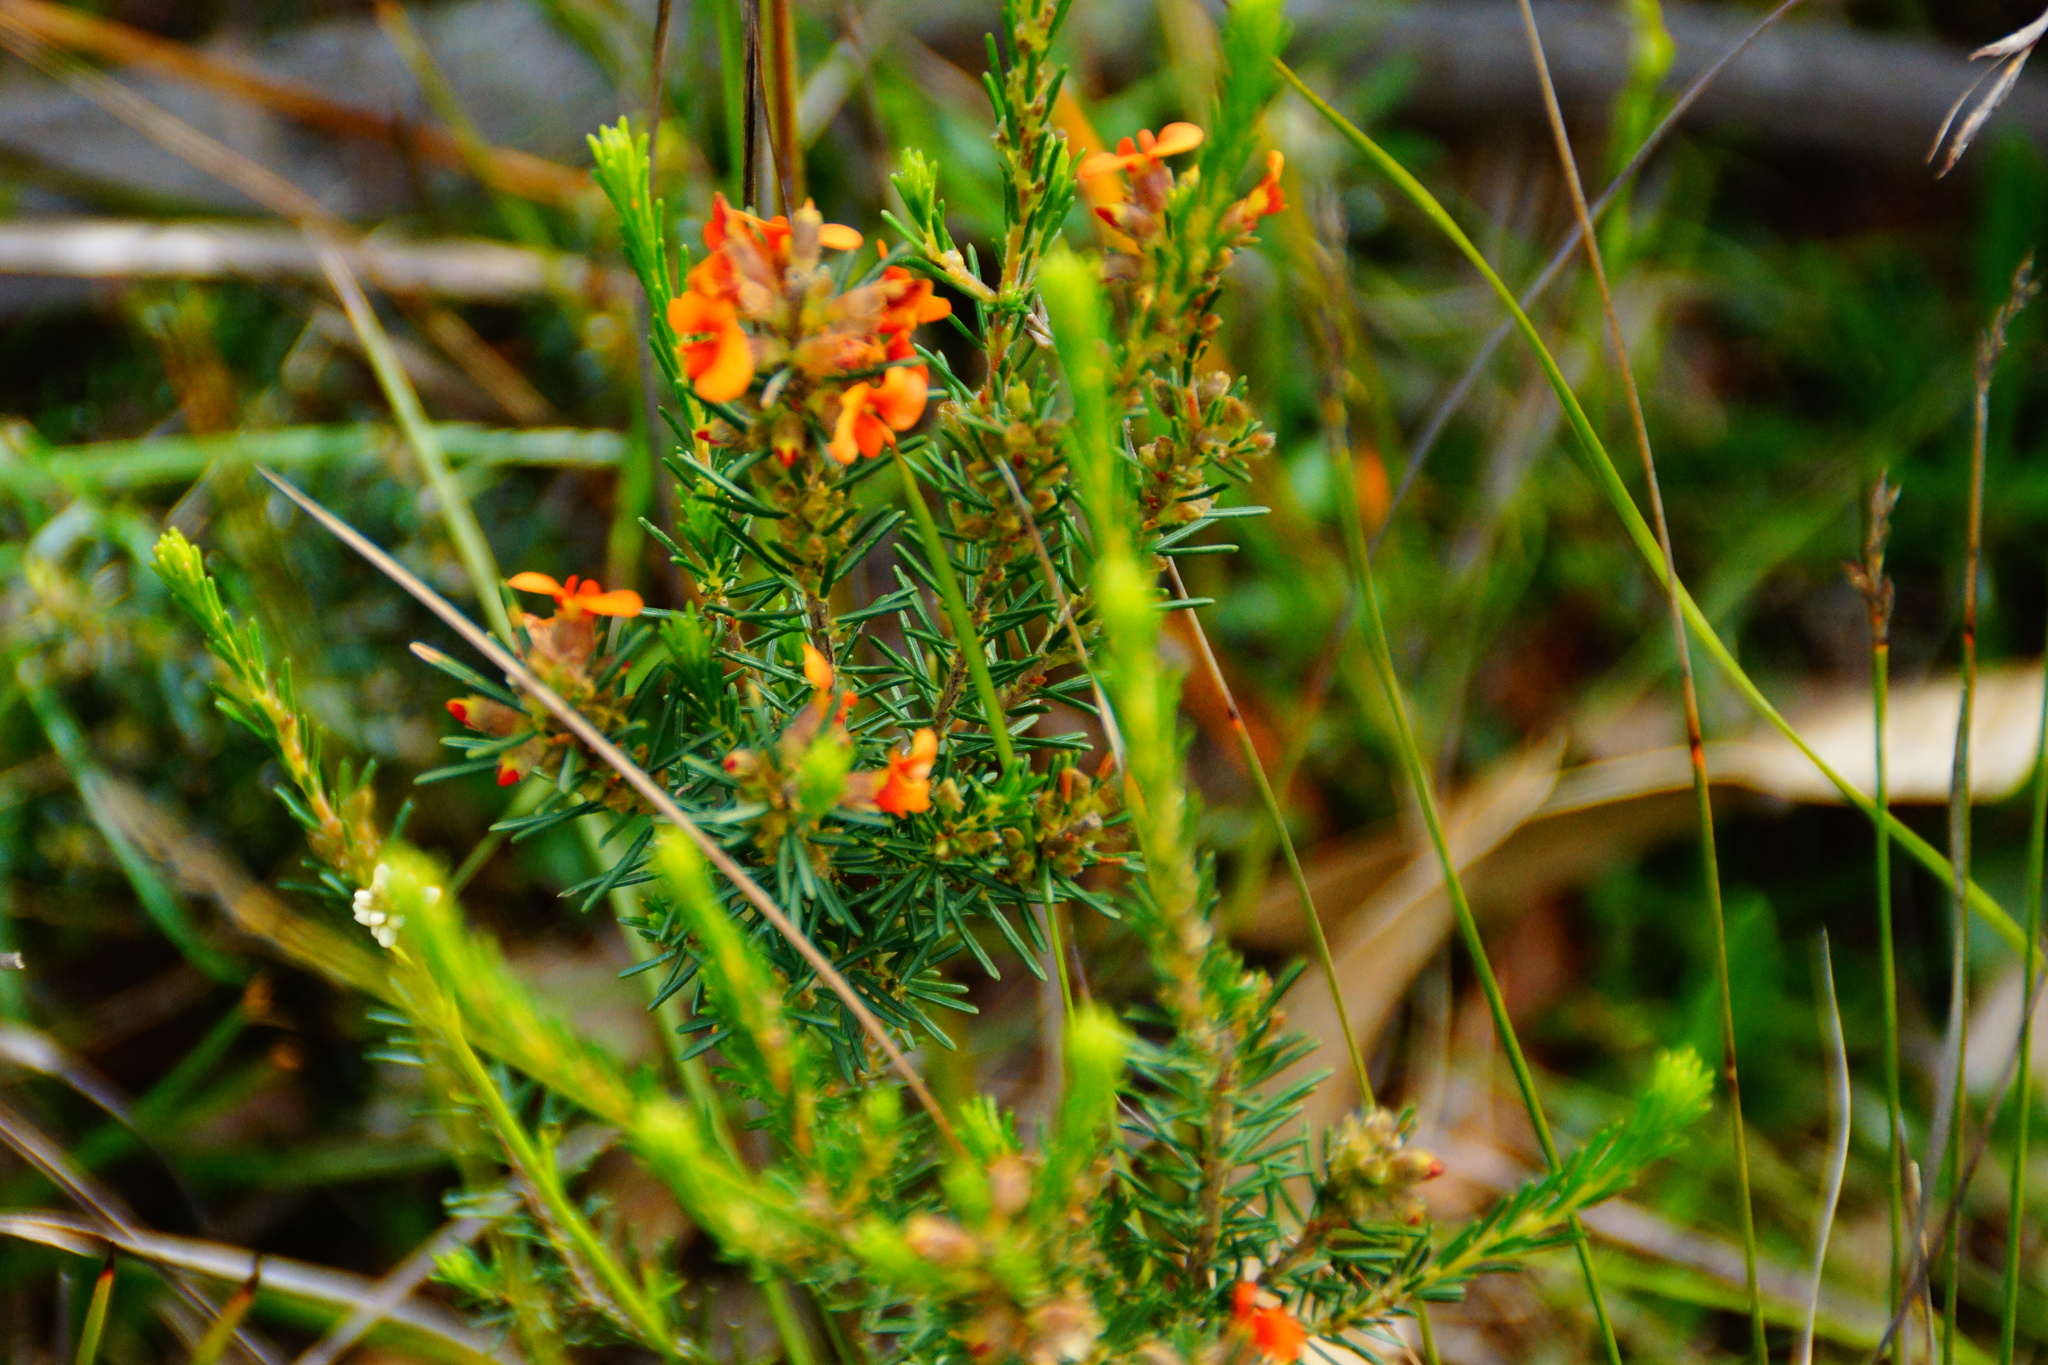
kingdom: Plantae
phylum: Tracheophyta
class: Magnoliopsida
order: Fabales
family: Fabaceae
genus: Dillwynia
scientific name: Dillwynia sericea
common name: Showy parrot-pea
